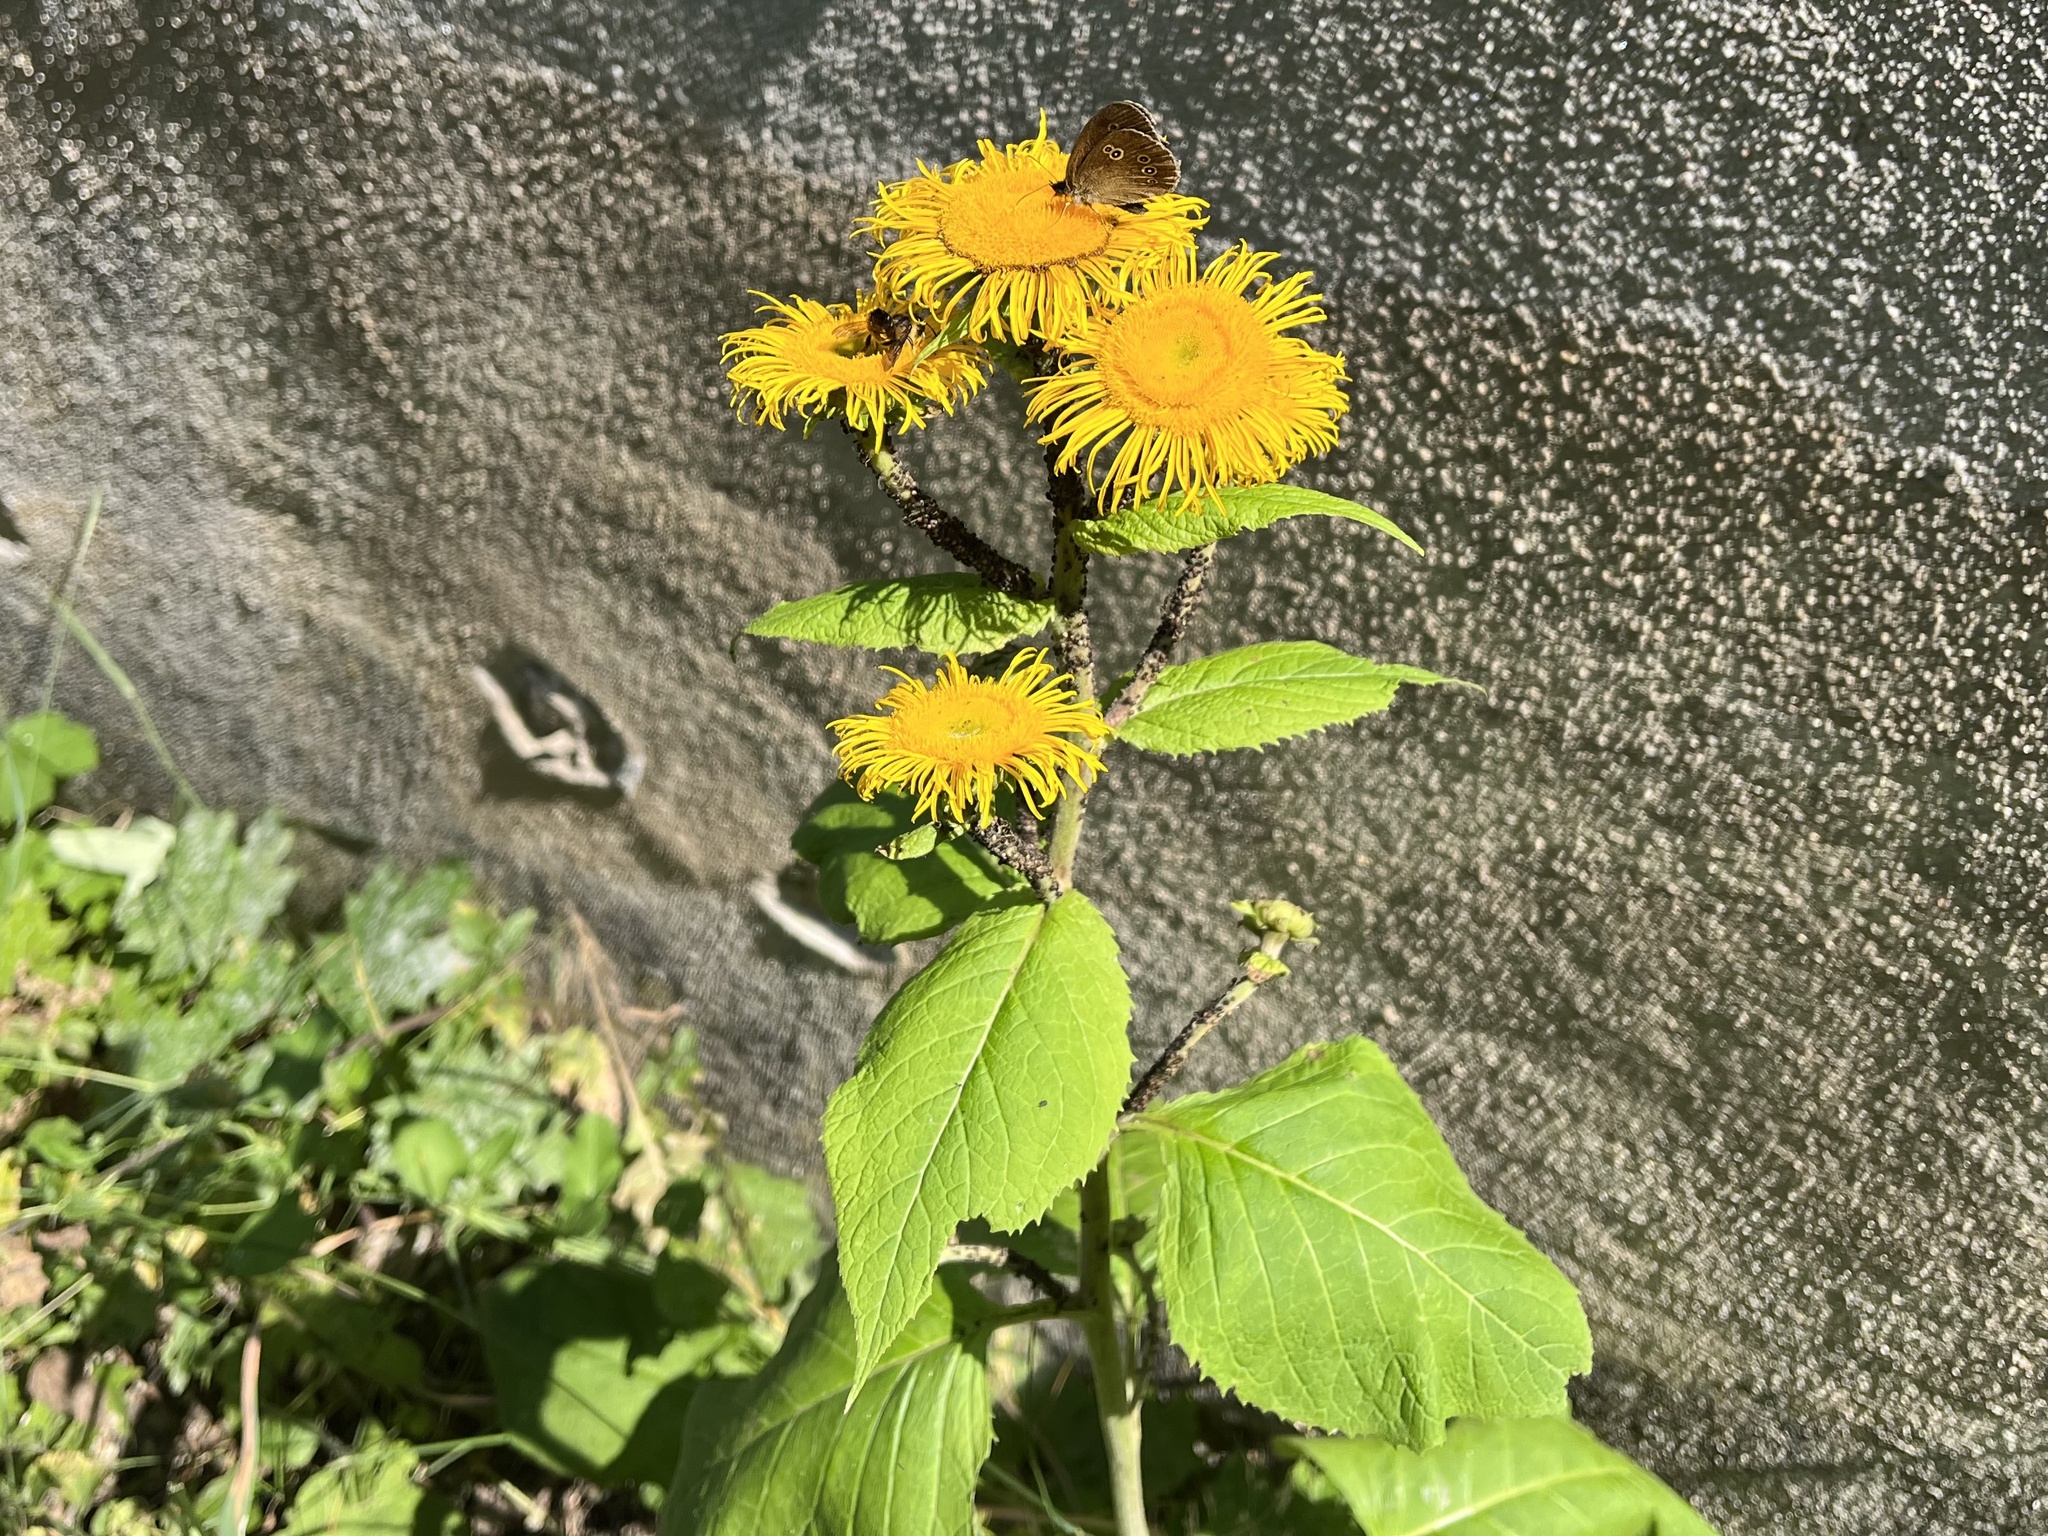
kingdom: Plantae
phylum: Tracheophyta
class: Magnoliopsida
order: Asterales
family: Asteraceae
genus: Telekia
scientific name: Telekia speciosa
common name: Yellow oxeye
